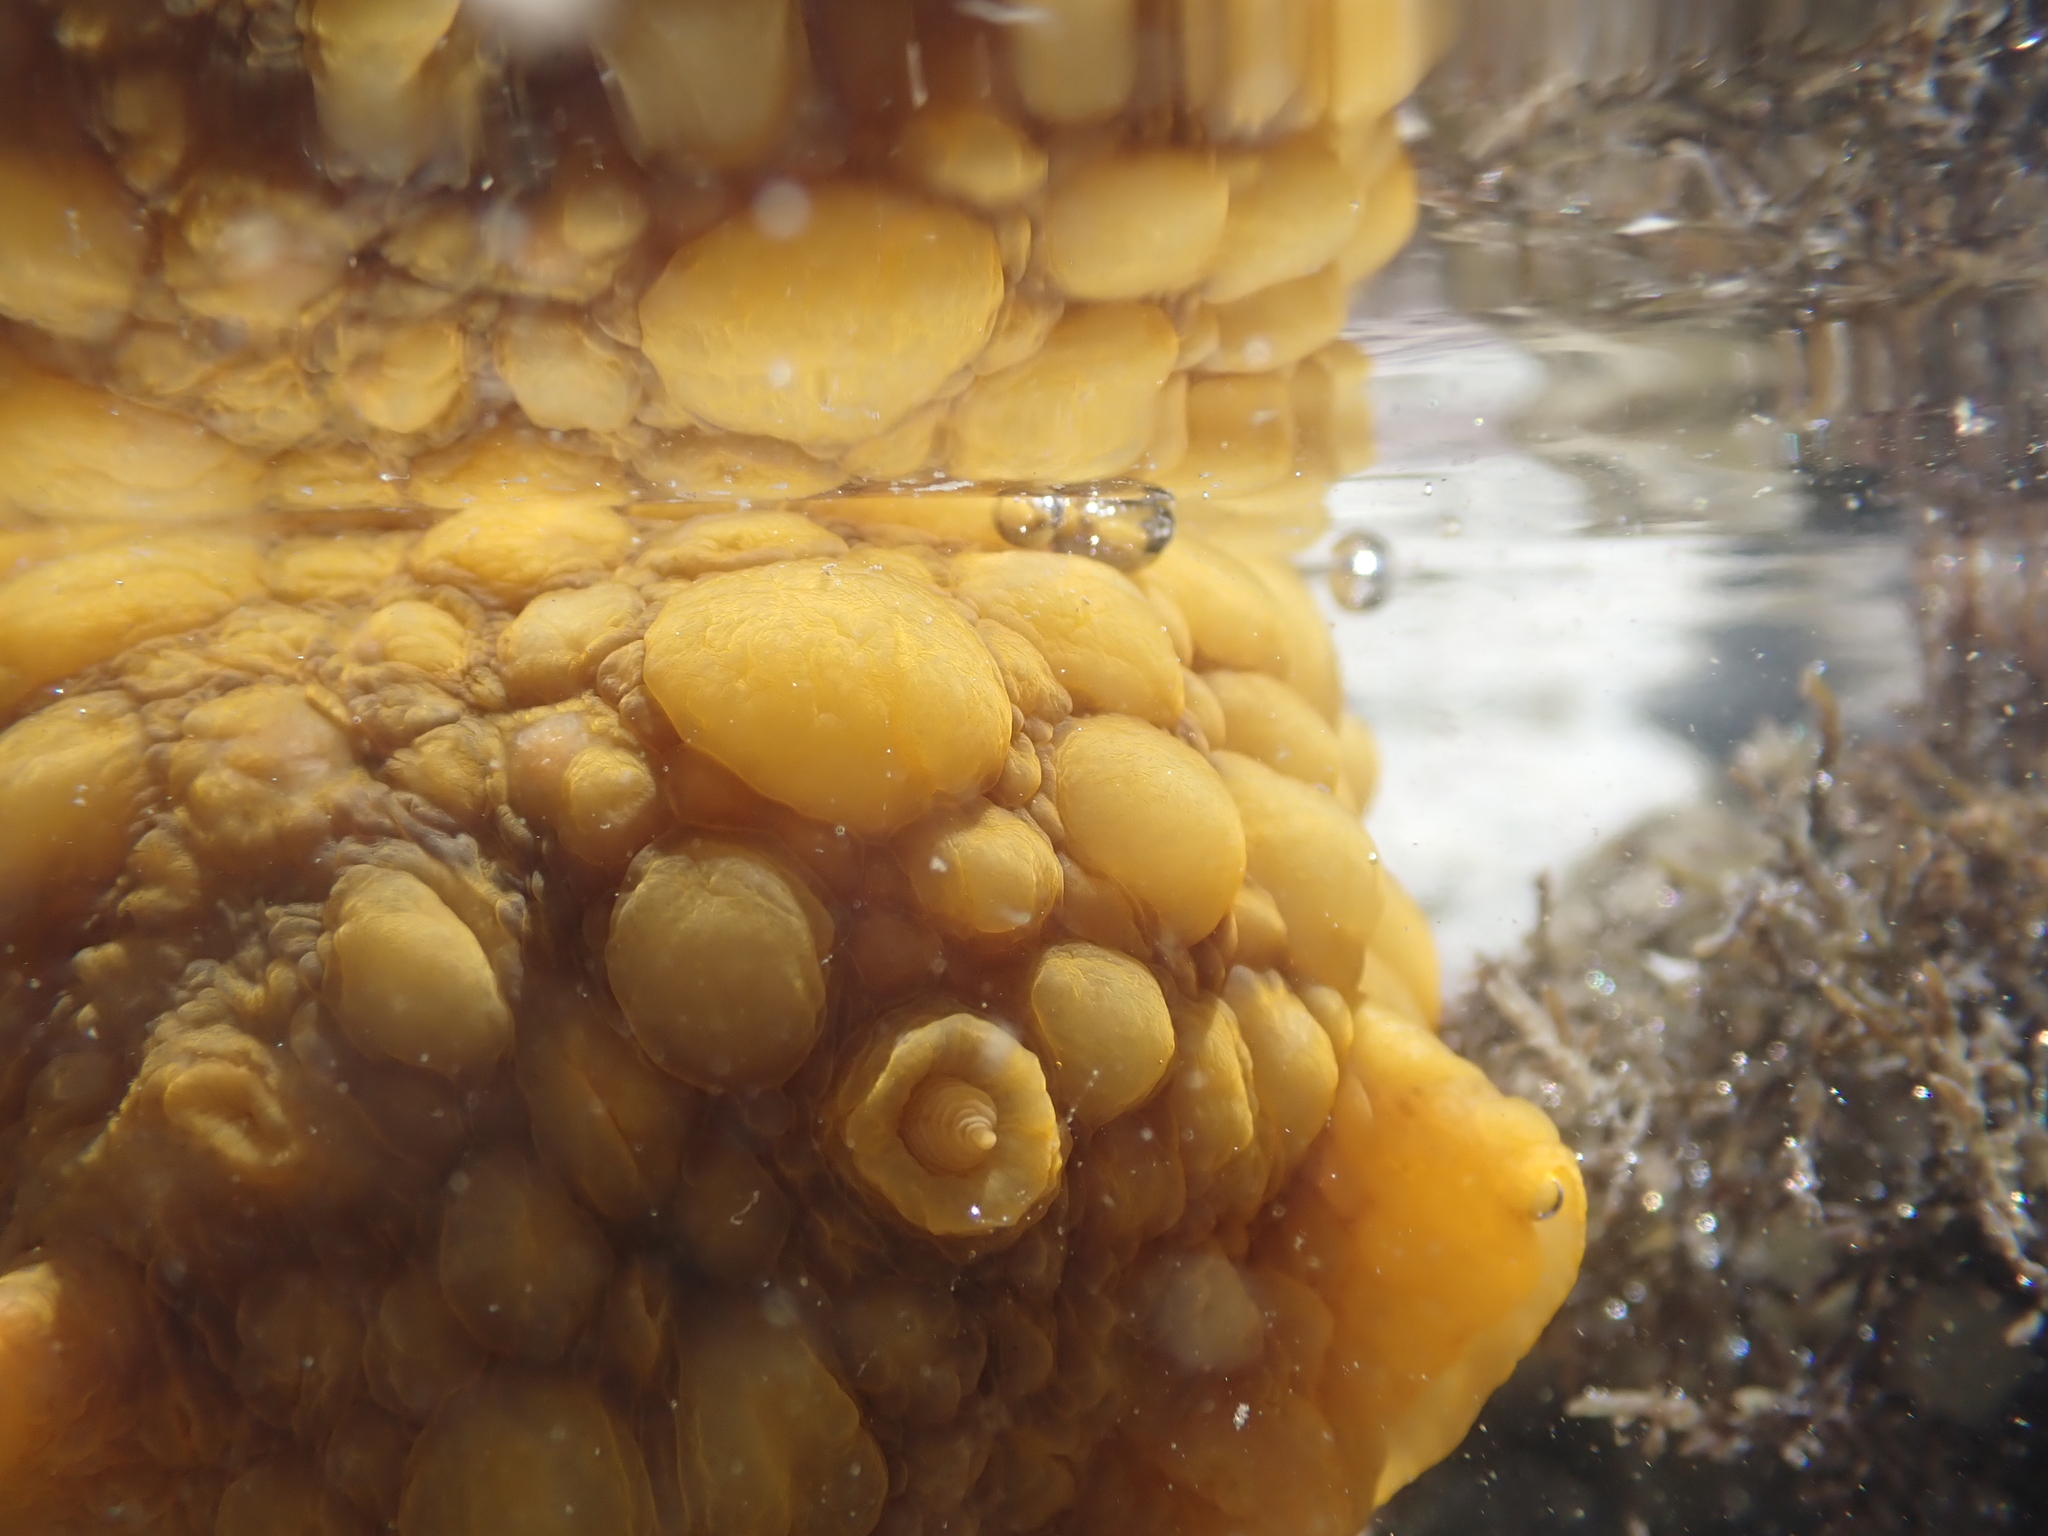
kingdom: Animalia
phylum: Mollusca
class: Gastropoda
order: Nudibranchia
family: Dorididae
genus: Doris
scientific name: Doris wellingtonensis
